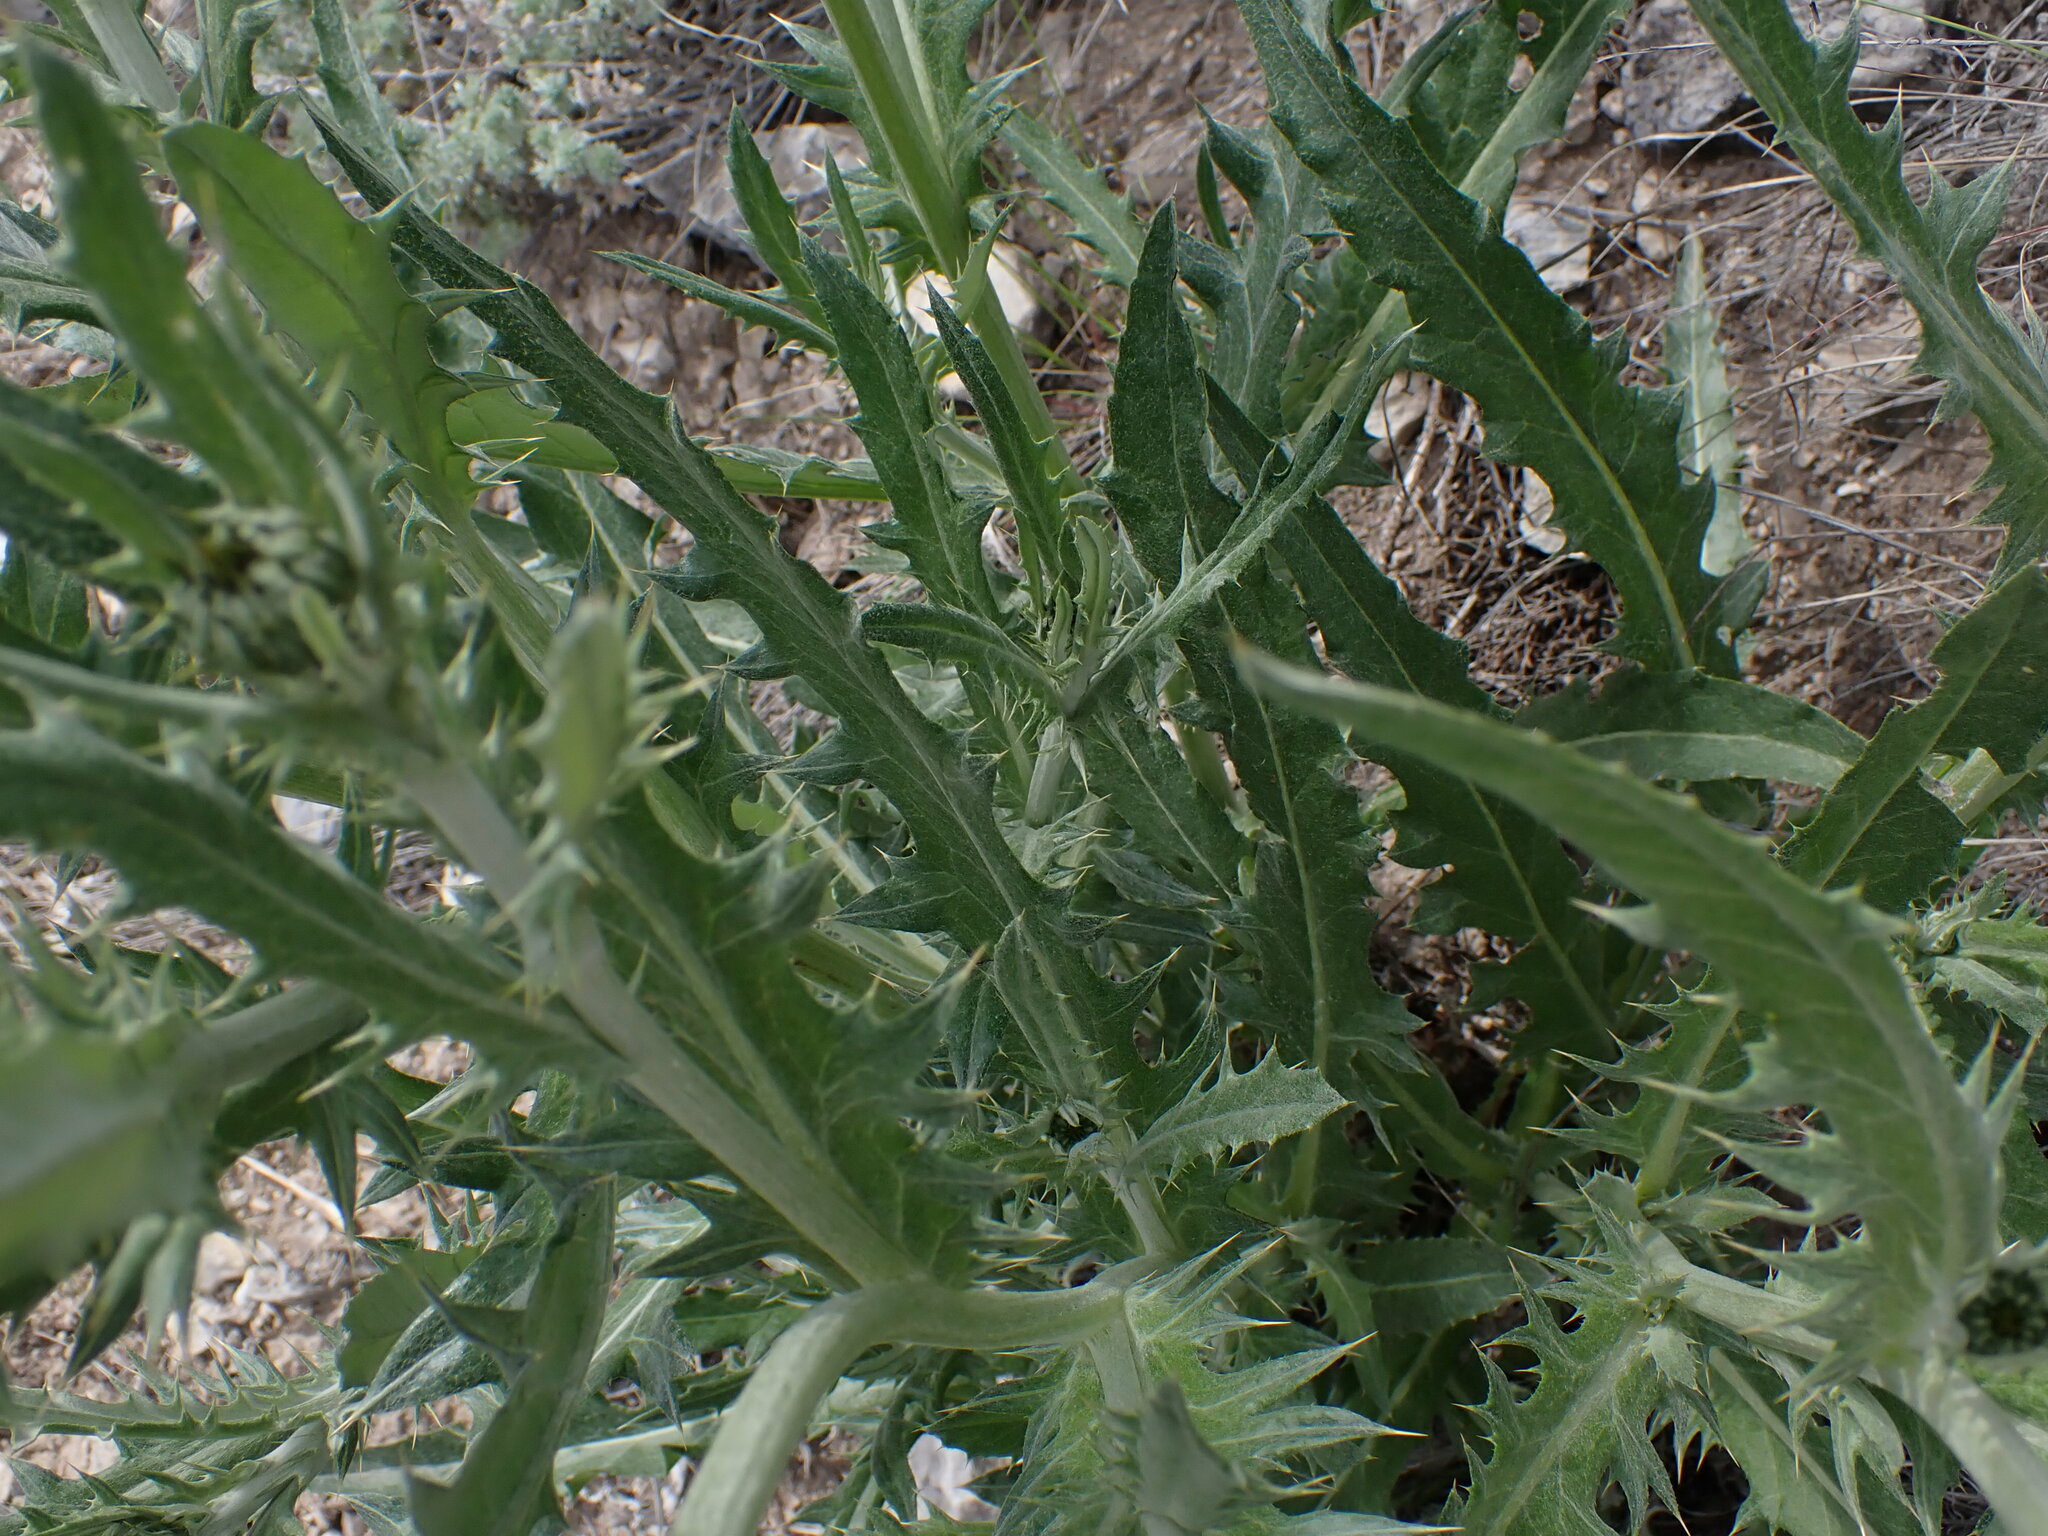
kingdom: Plantae
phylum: Tracheophyta
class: Magnoliopsida
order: Asterales
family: Asteraceae
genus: Cirsium
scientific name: Cirsium undulatum
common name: Pasture thistle
